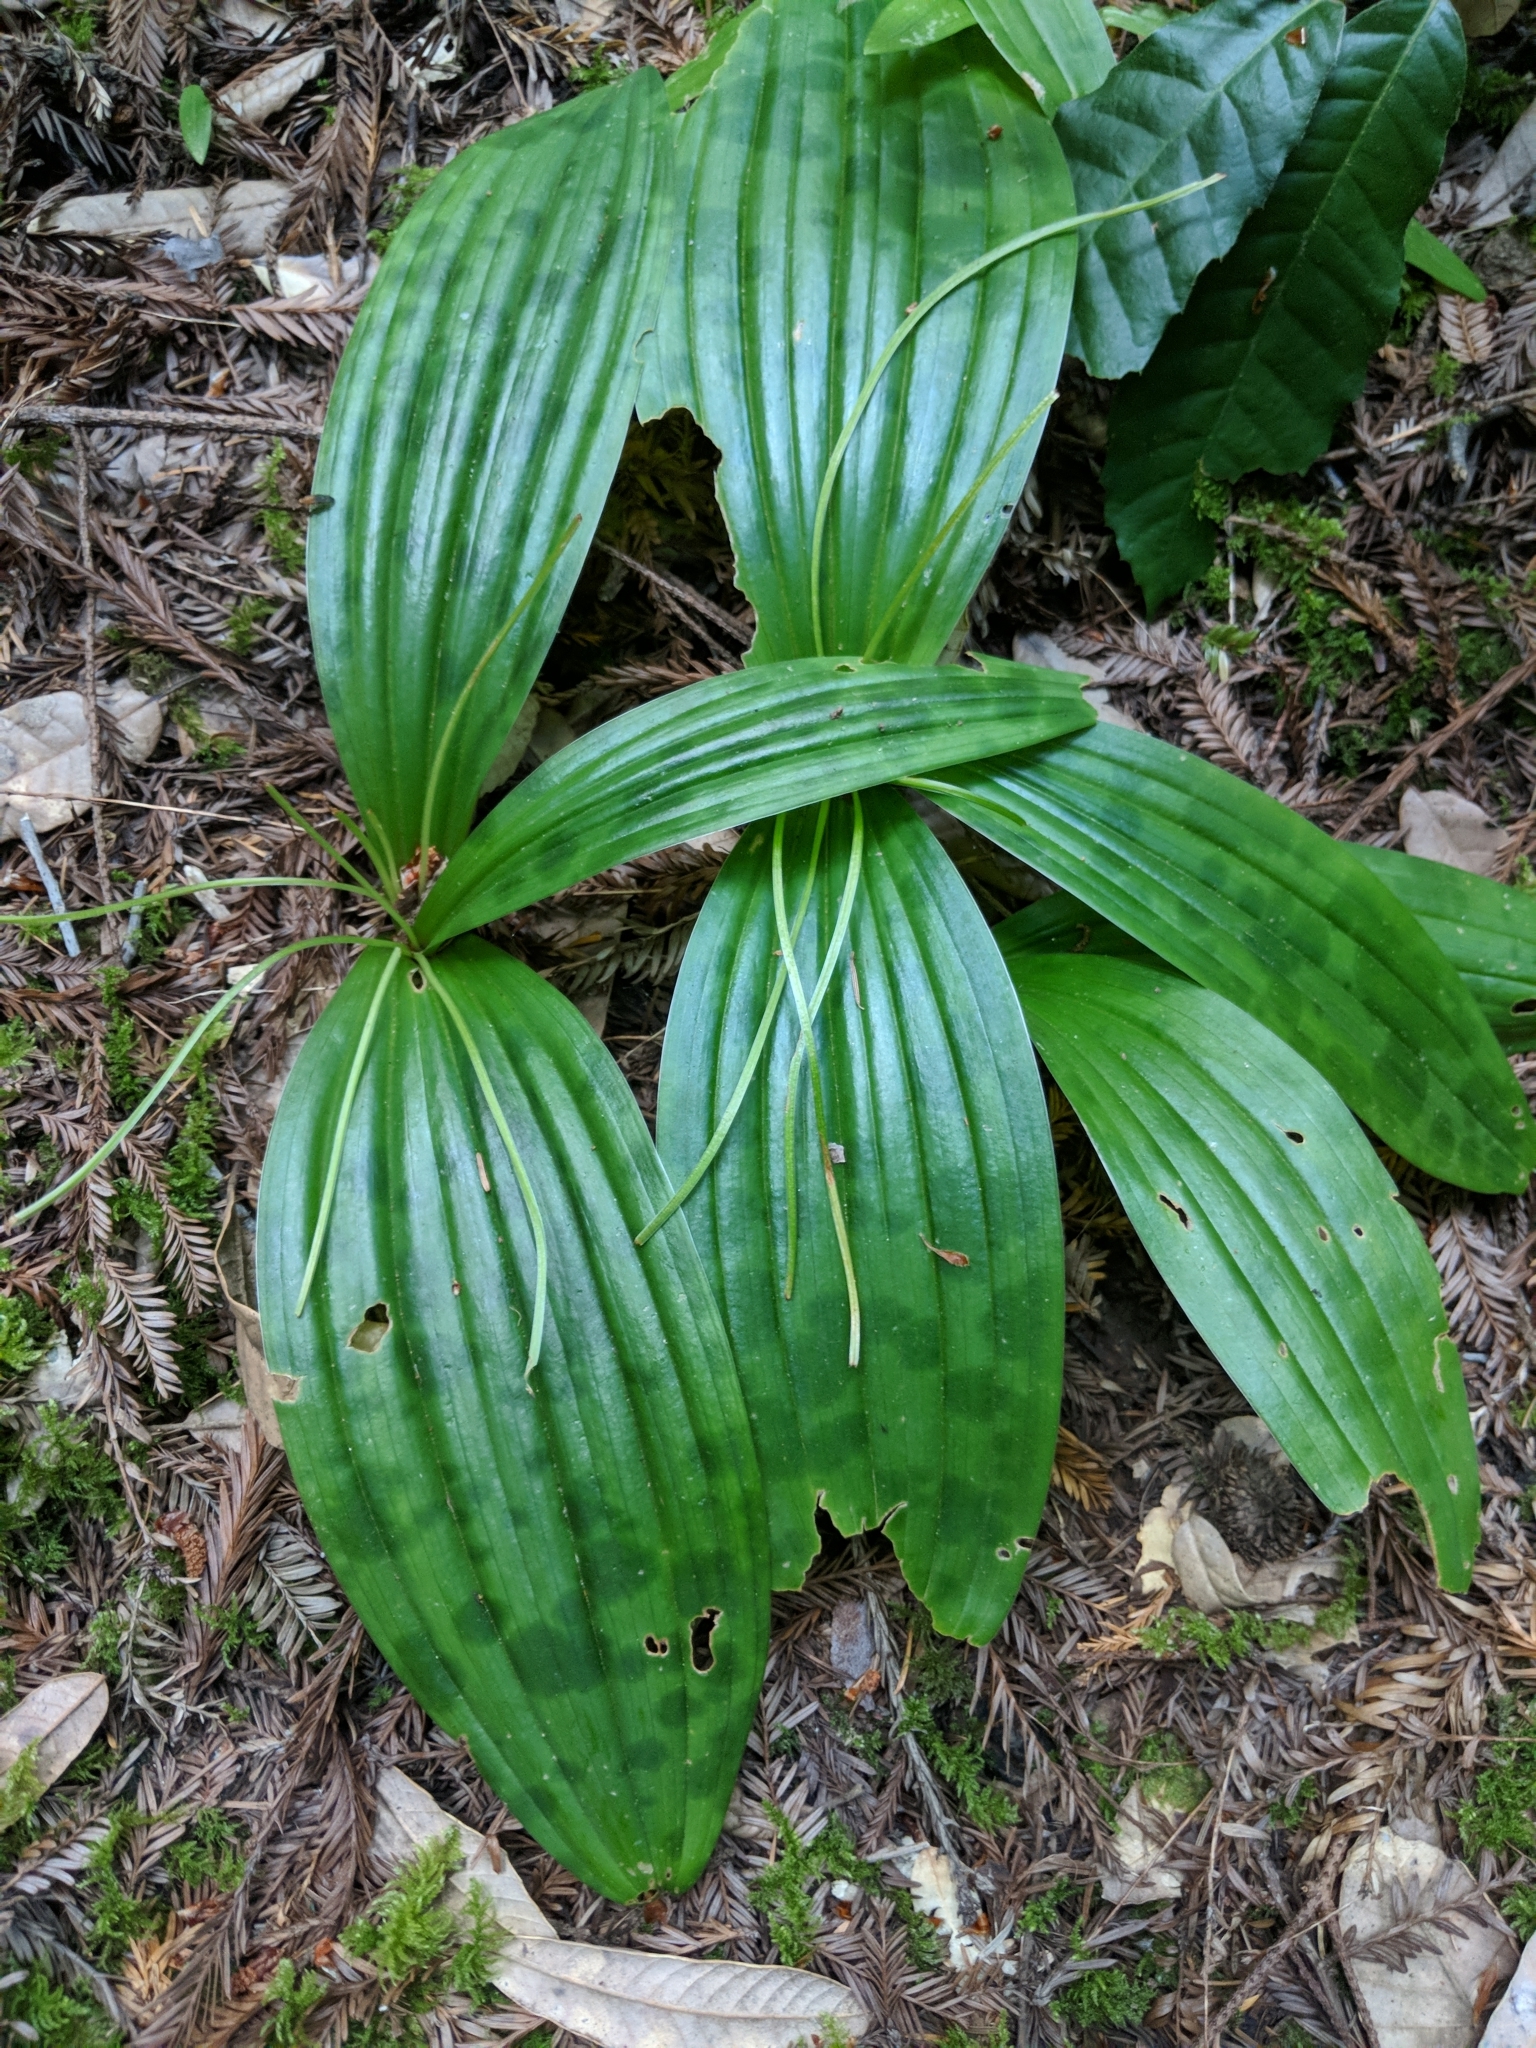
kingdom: Plantae
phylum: Tracheophyta
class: Liliopsida
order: Liliales
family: Liliaceae
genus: Scoliopus
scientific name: Scoliopus bigelovii
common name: Foetid adder's-tongue
